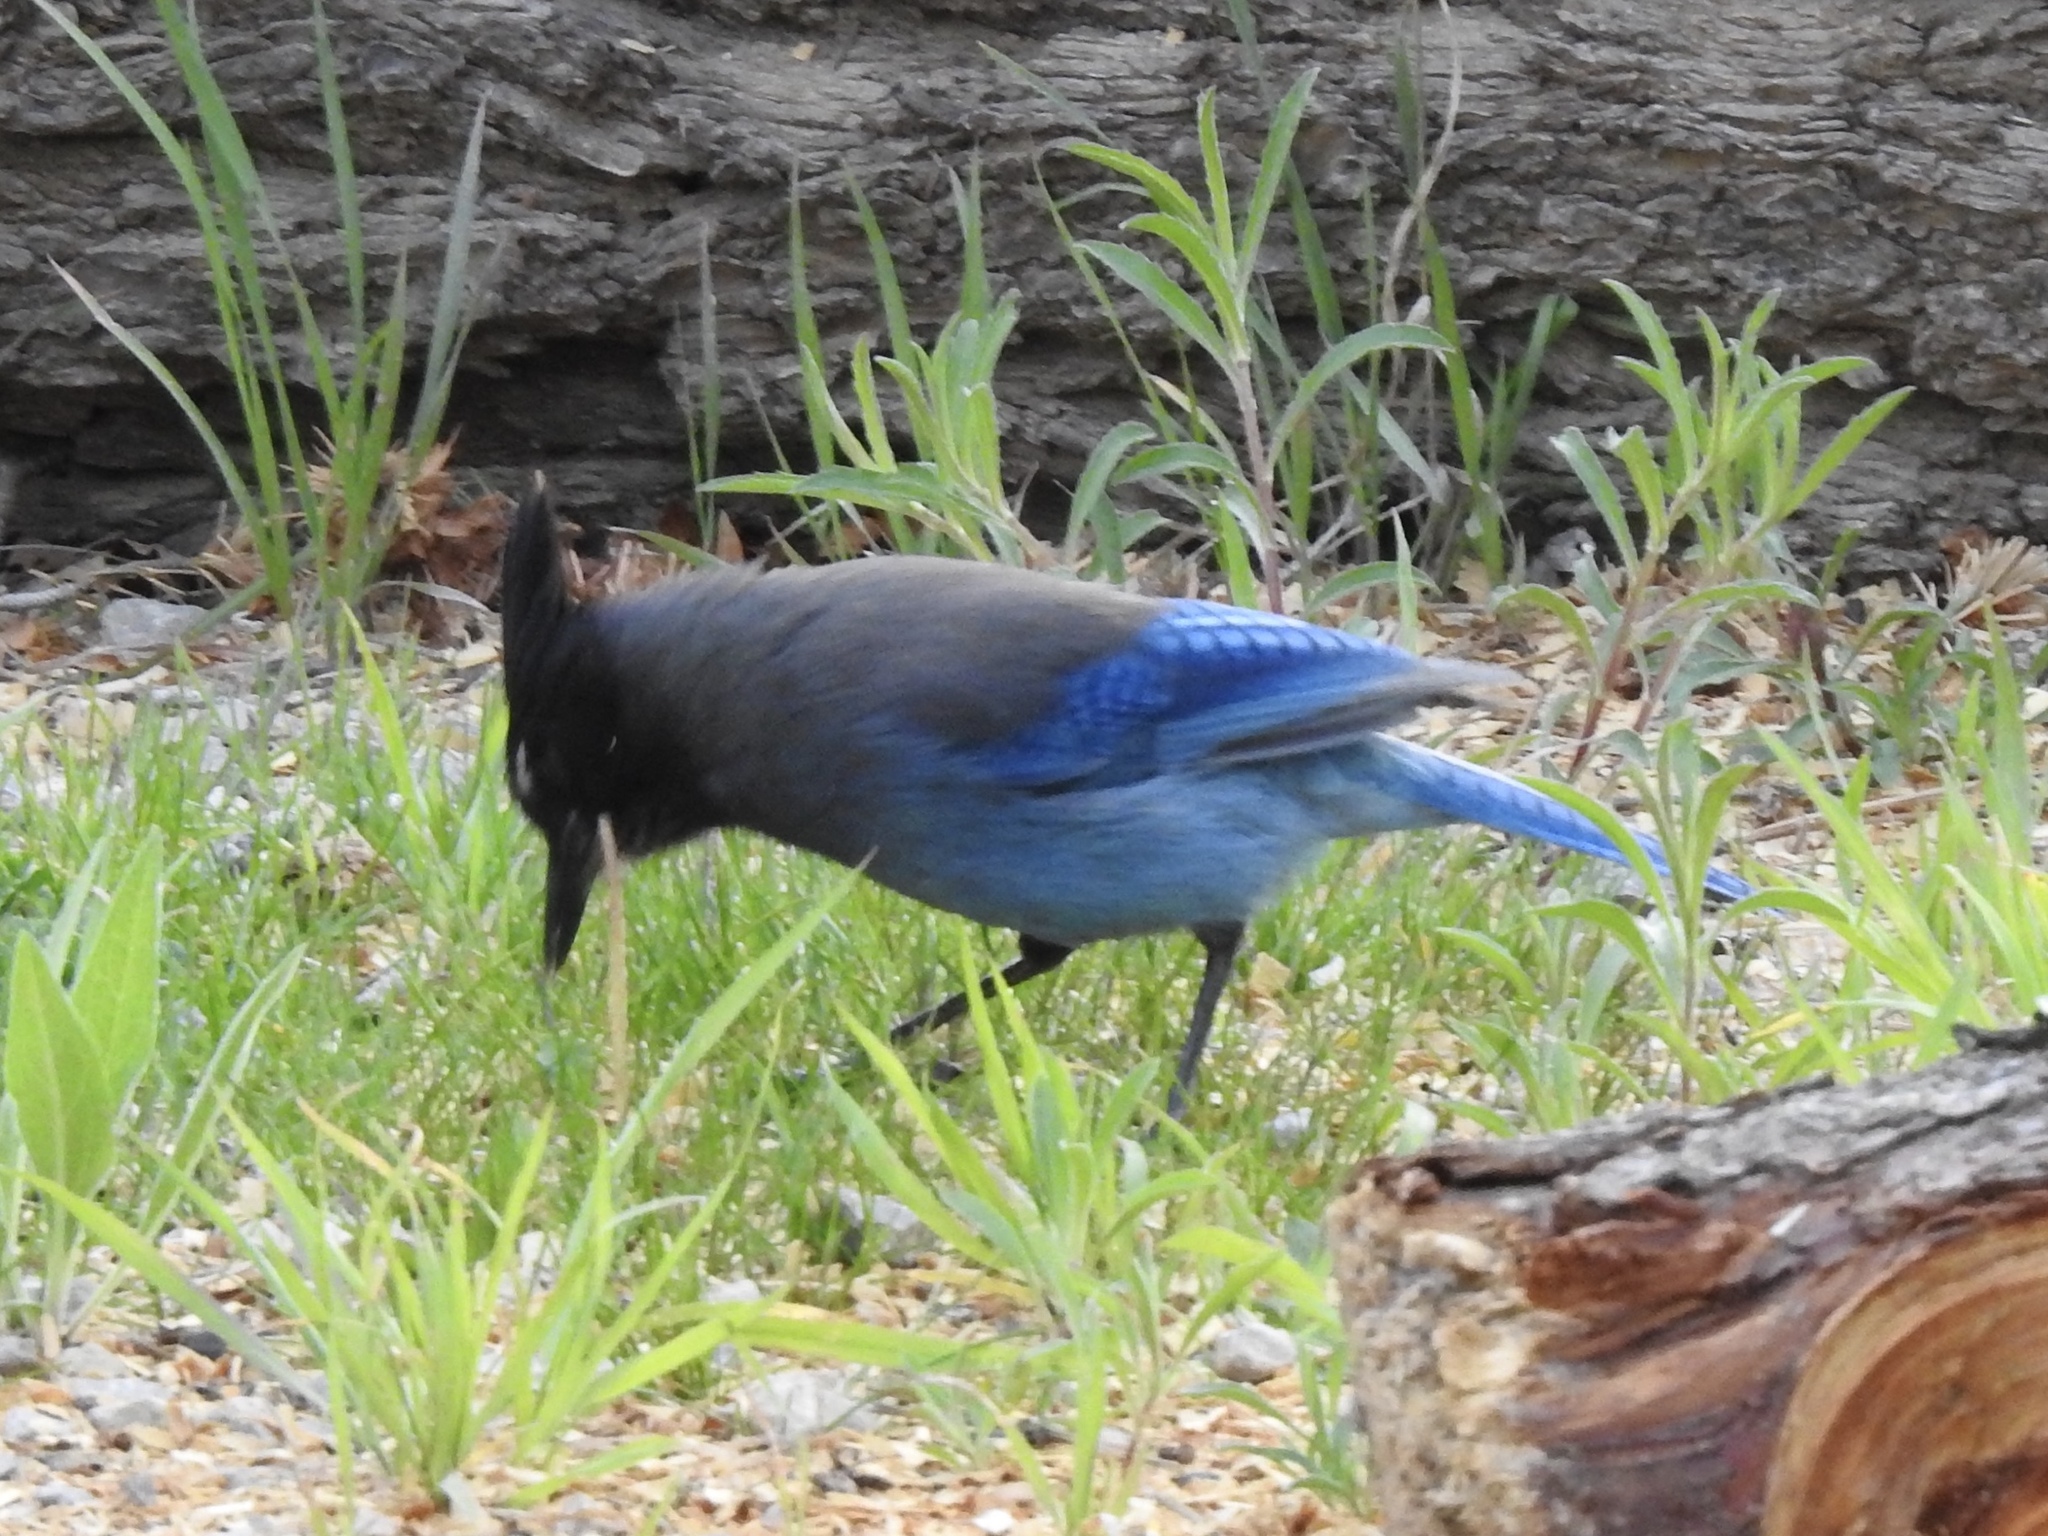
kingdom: Animalia
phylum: Chordata
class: Aves
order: Passeriformes
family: Corvidae
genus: Cyanocitta
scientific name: Cyanocitta stelleri
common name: Steller's jay
